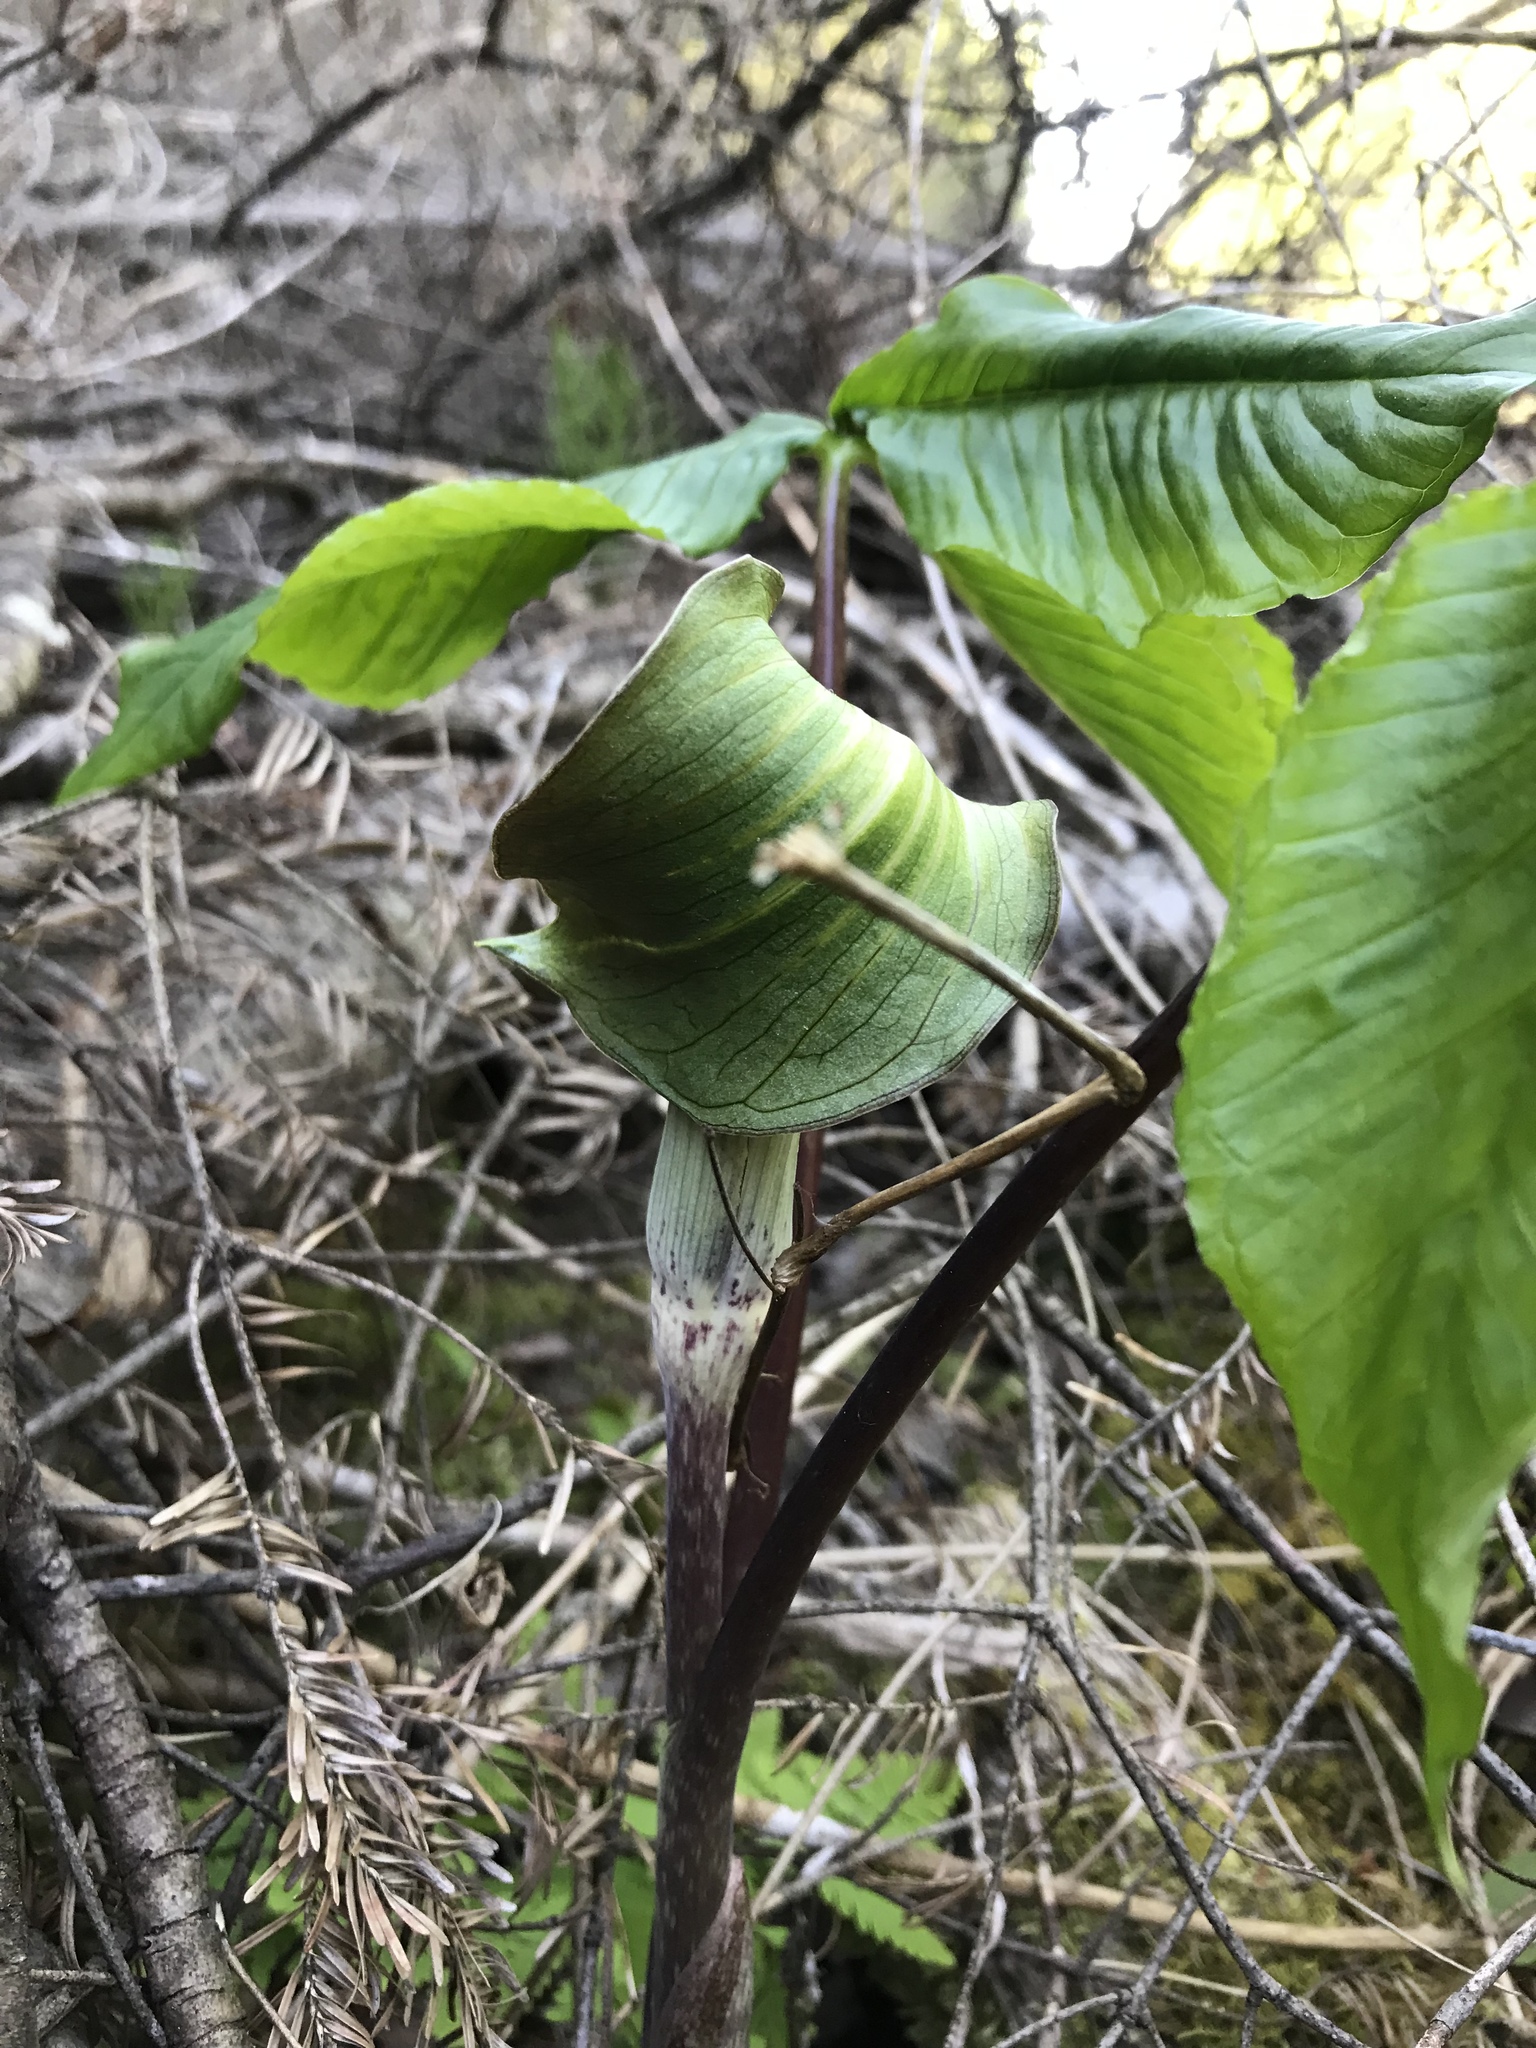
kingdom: Plantae
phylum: Tracheophyta
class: Liliopsida
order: Alismatales
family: Araceae
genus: Arisaema
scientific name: Arisaema triphyllum
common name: Jack-in-the-pulpit
